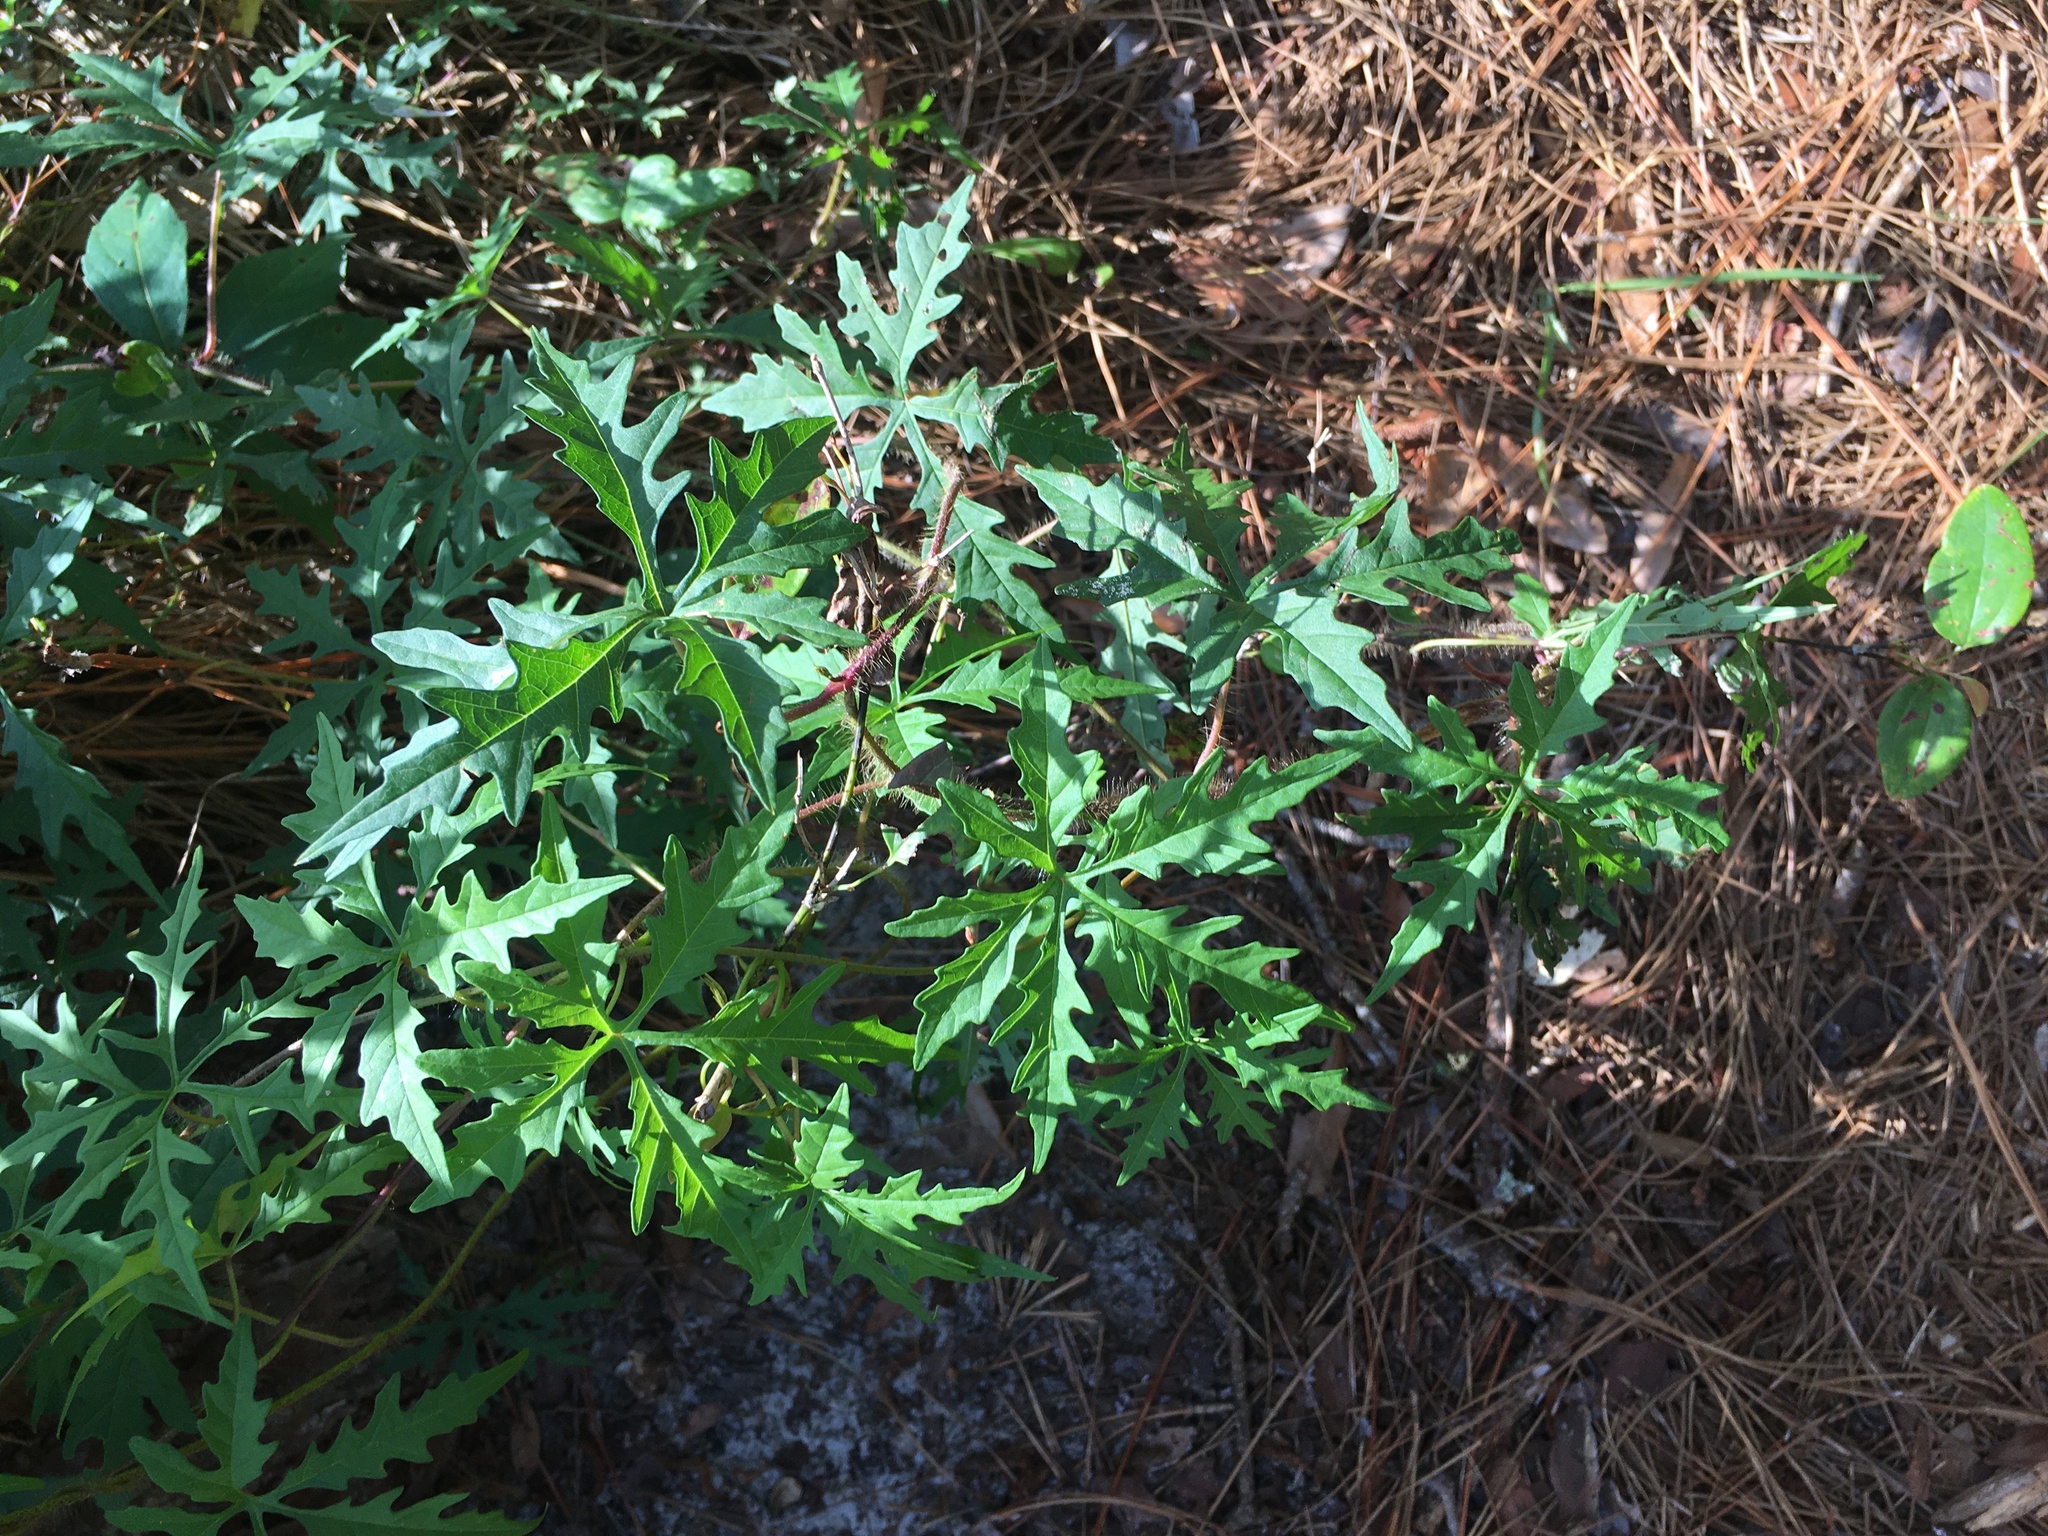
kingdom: Plantae
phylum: Tracheophyta
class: Magnoliopsida
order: Solanales
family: Convolvulaceae
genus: Distimake
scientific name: Distimake dissectus
